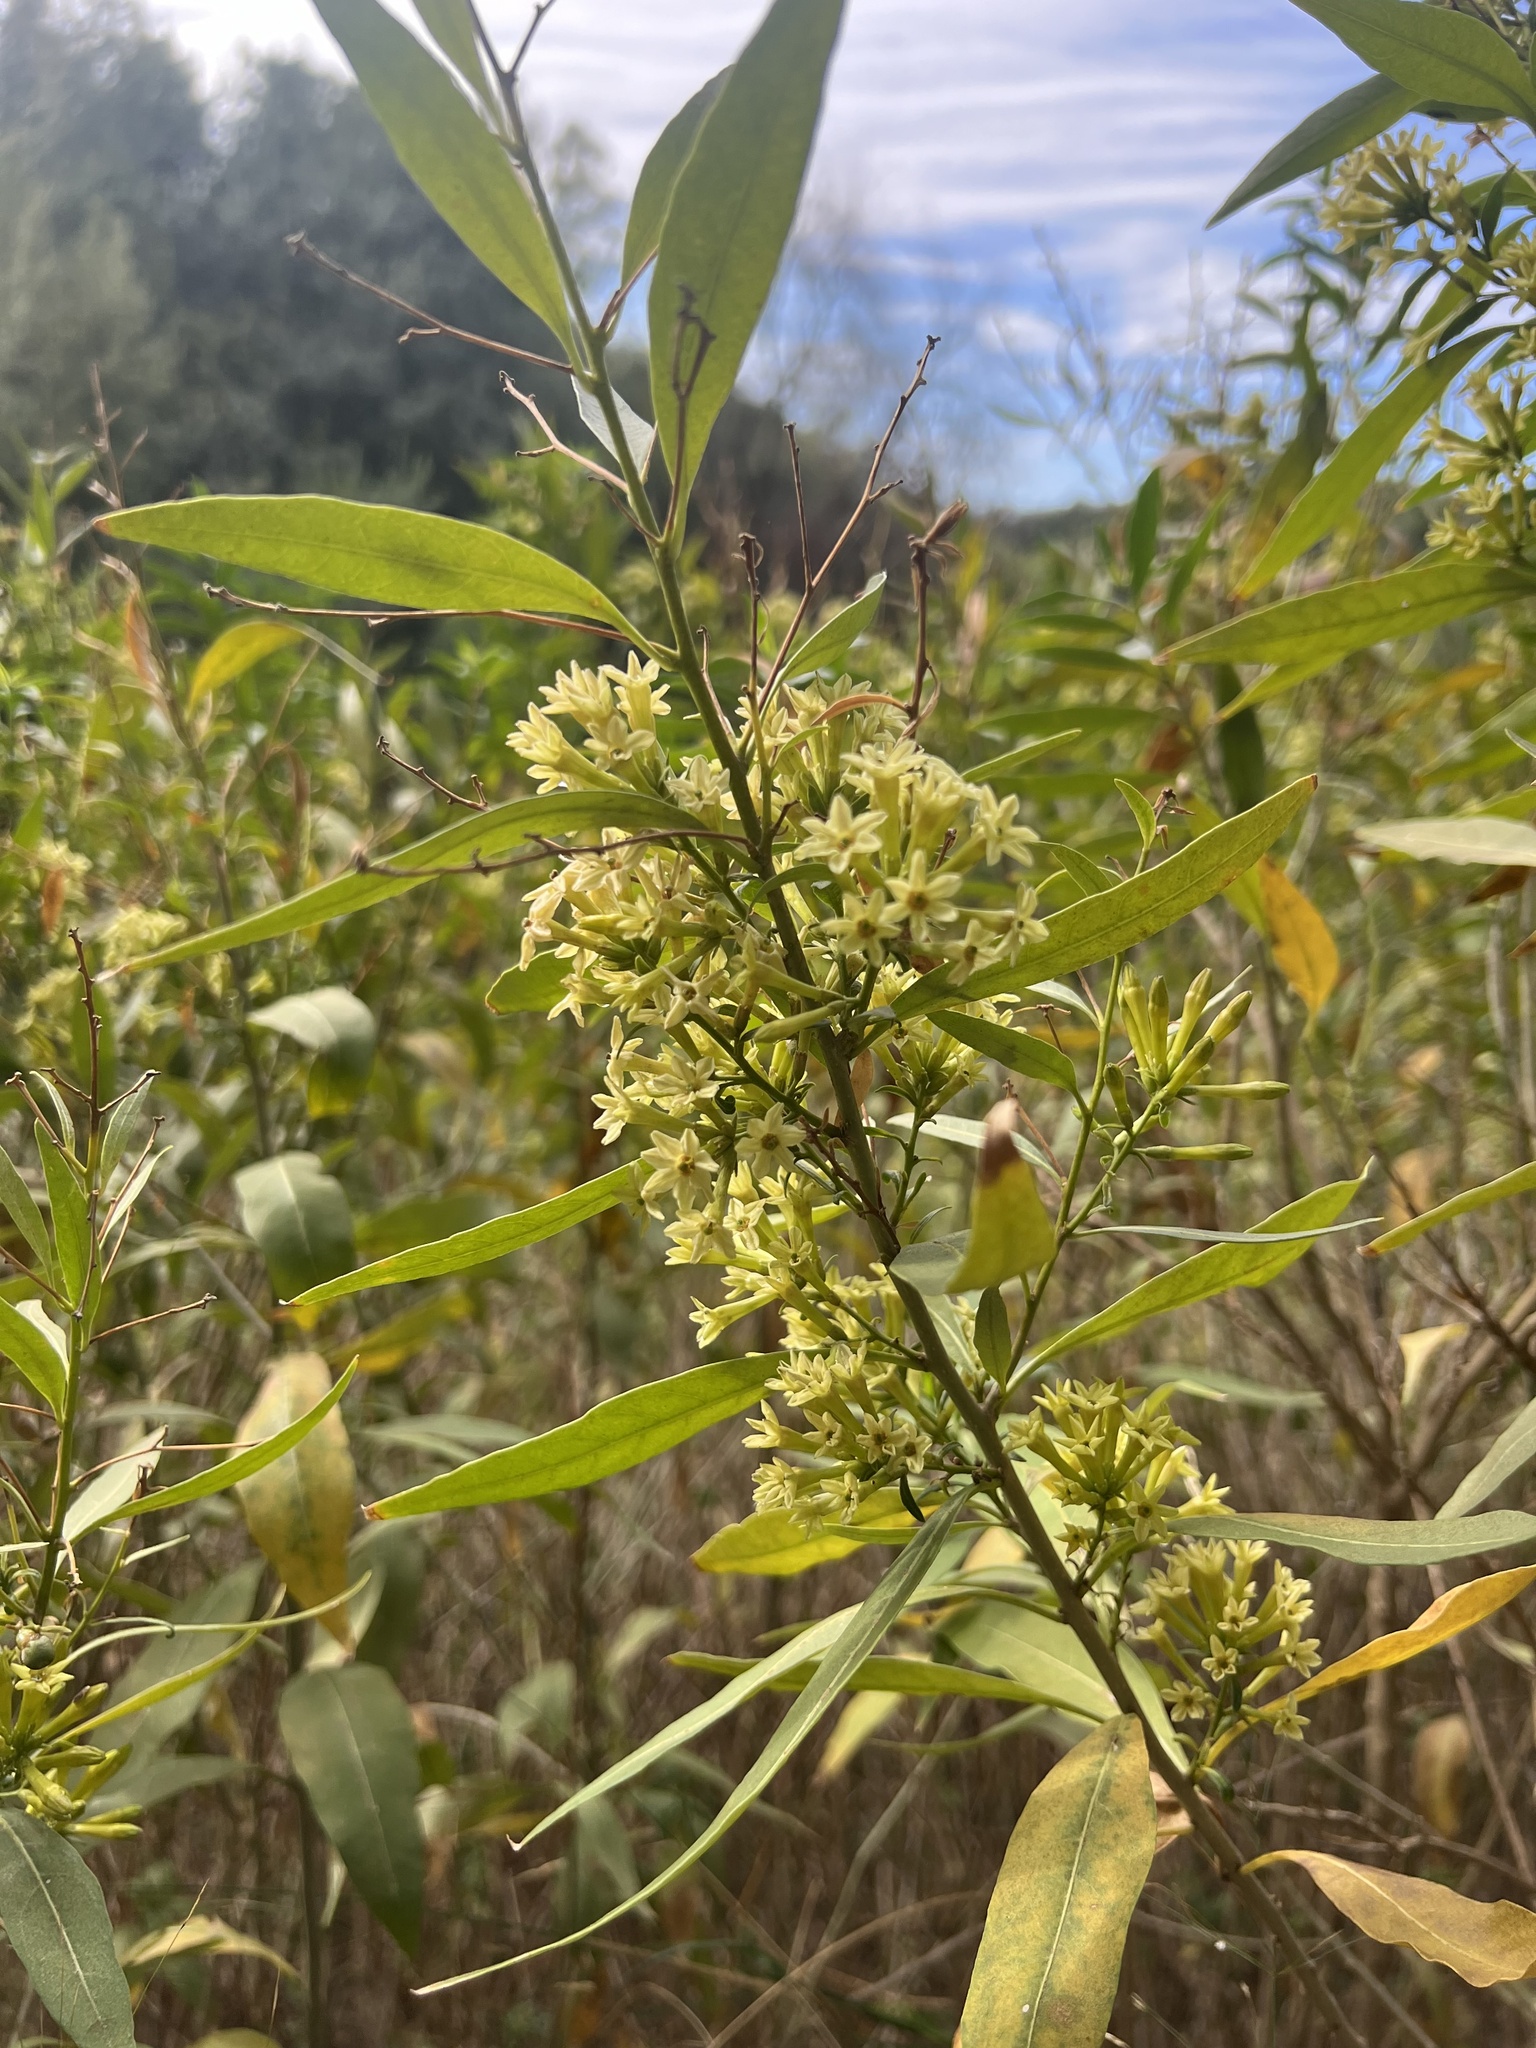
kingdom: Plantae
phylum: Tracheophyta
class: Magnoliopsida
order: Solanales
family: Solanaceae
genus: Cestrum
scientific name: Cestrum parqui
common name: Chilean cestrum
